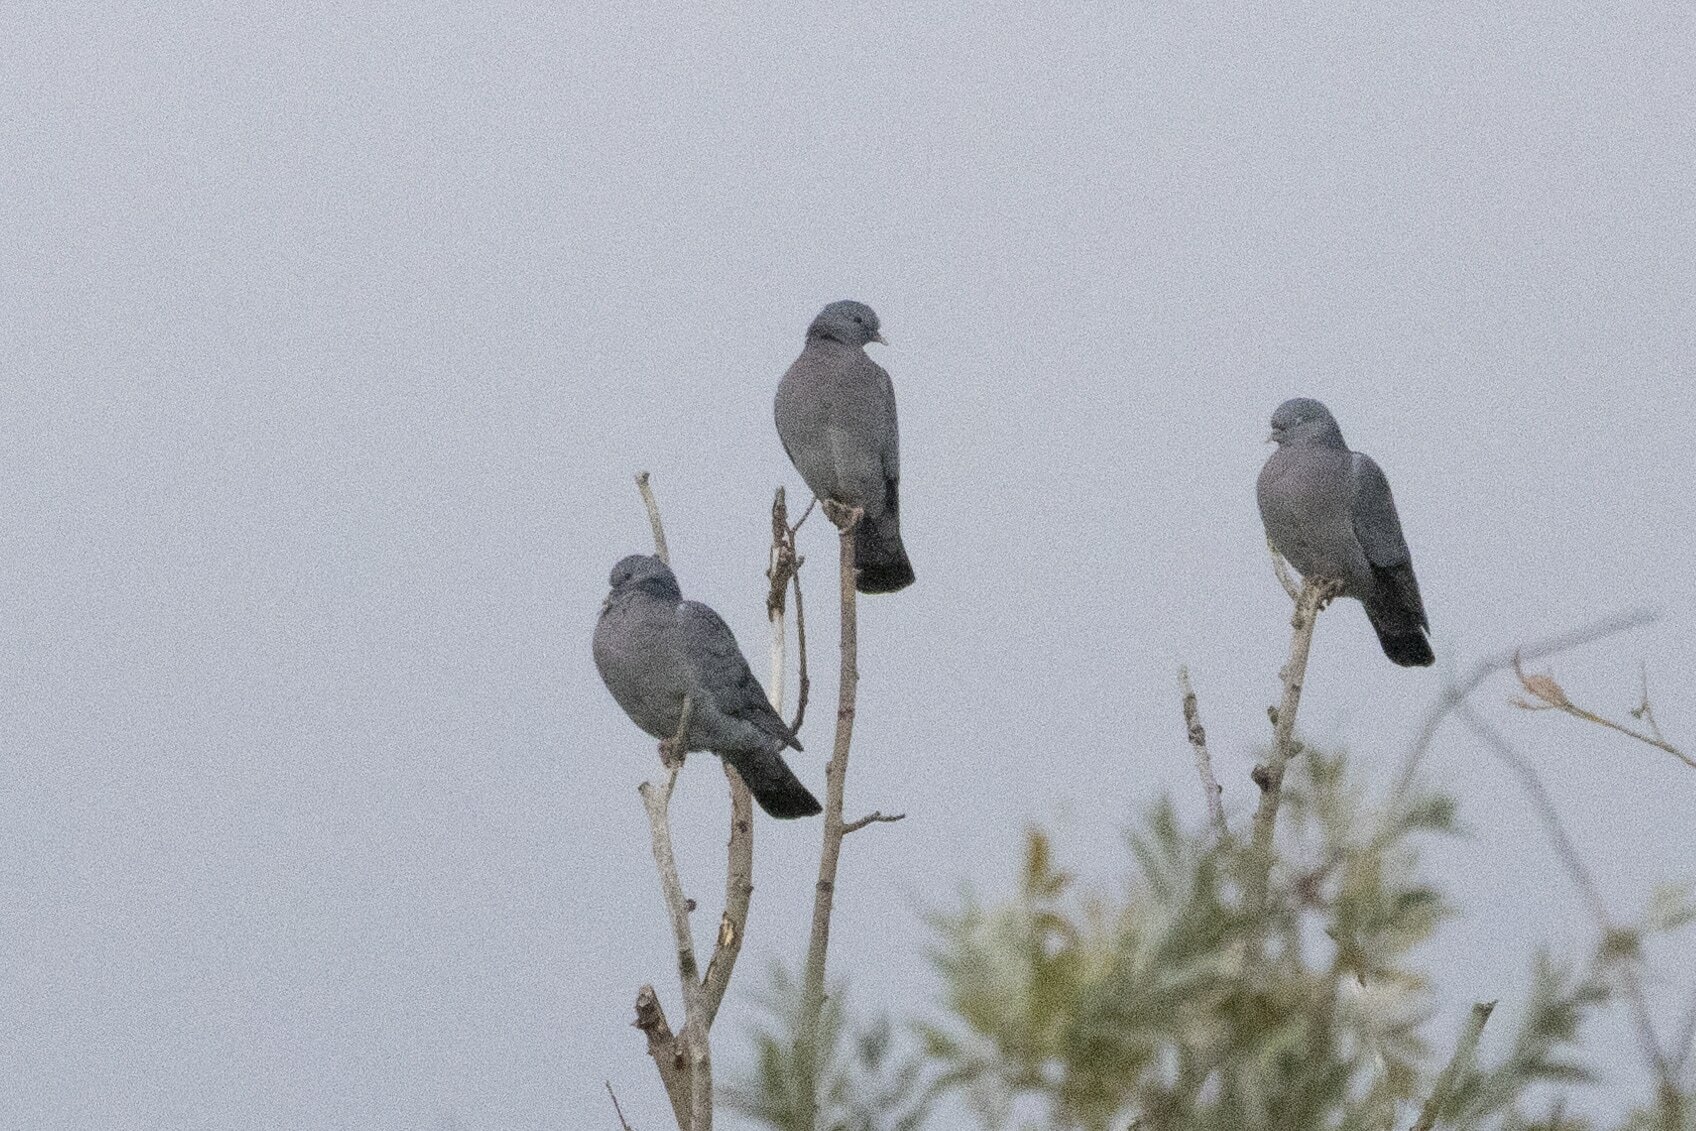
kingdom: Animalia
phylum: Chordata
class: Aves
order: Columbiformes
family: Columbidae
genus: Columba
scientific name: Columba oenas
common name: Stock dove
